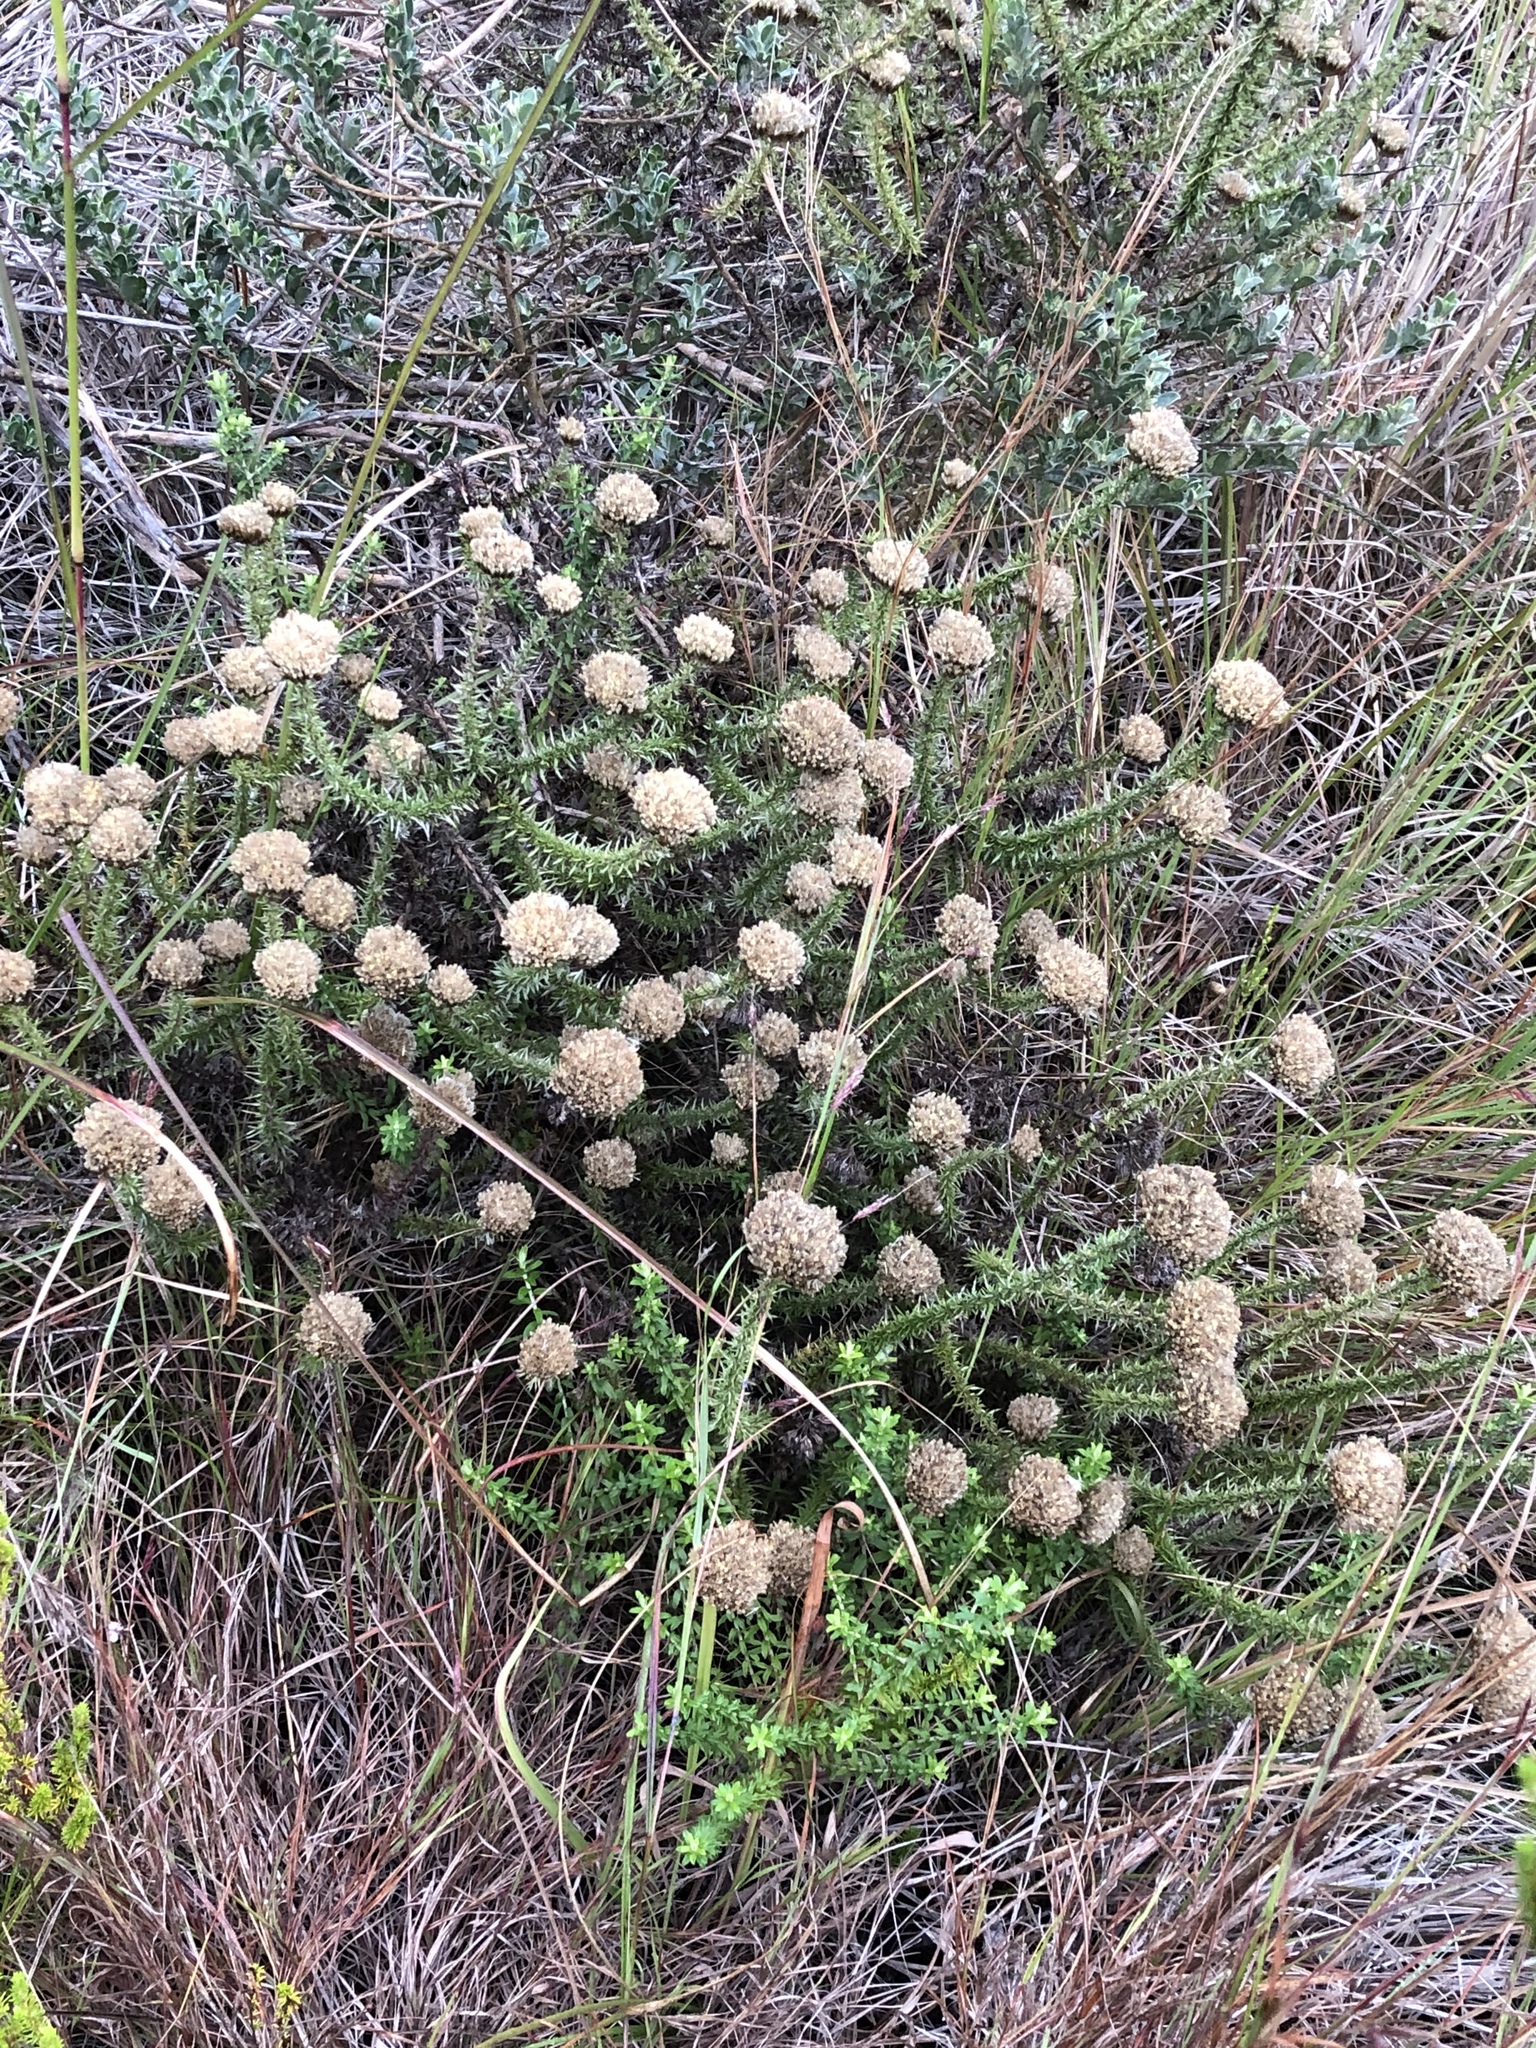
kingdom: Plantae
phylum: Tracheophyta
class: Magnoliopsida
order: Asterales
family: Asteraceae
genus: Metalasia
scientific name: Metalasia acuta
